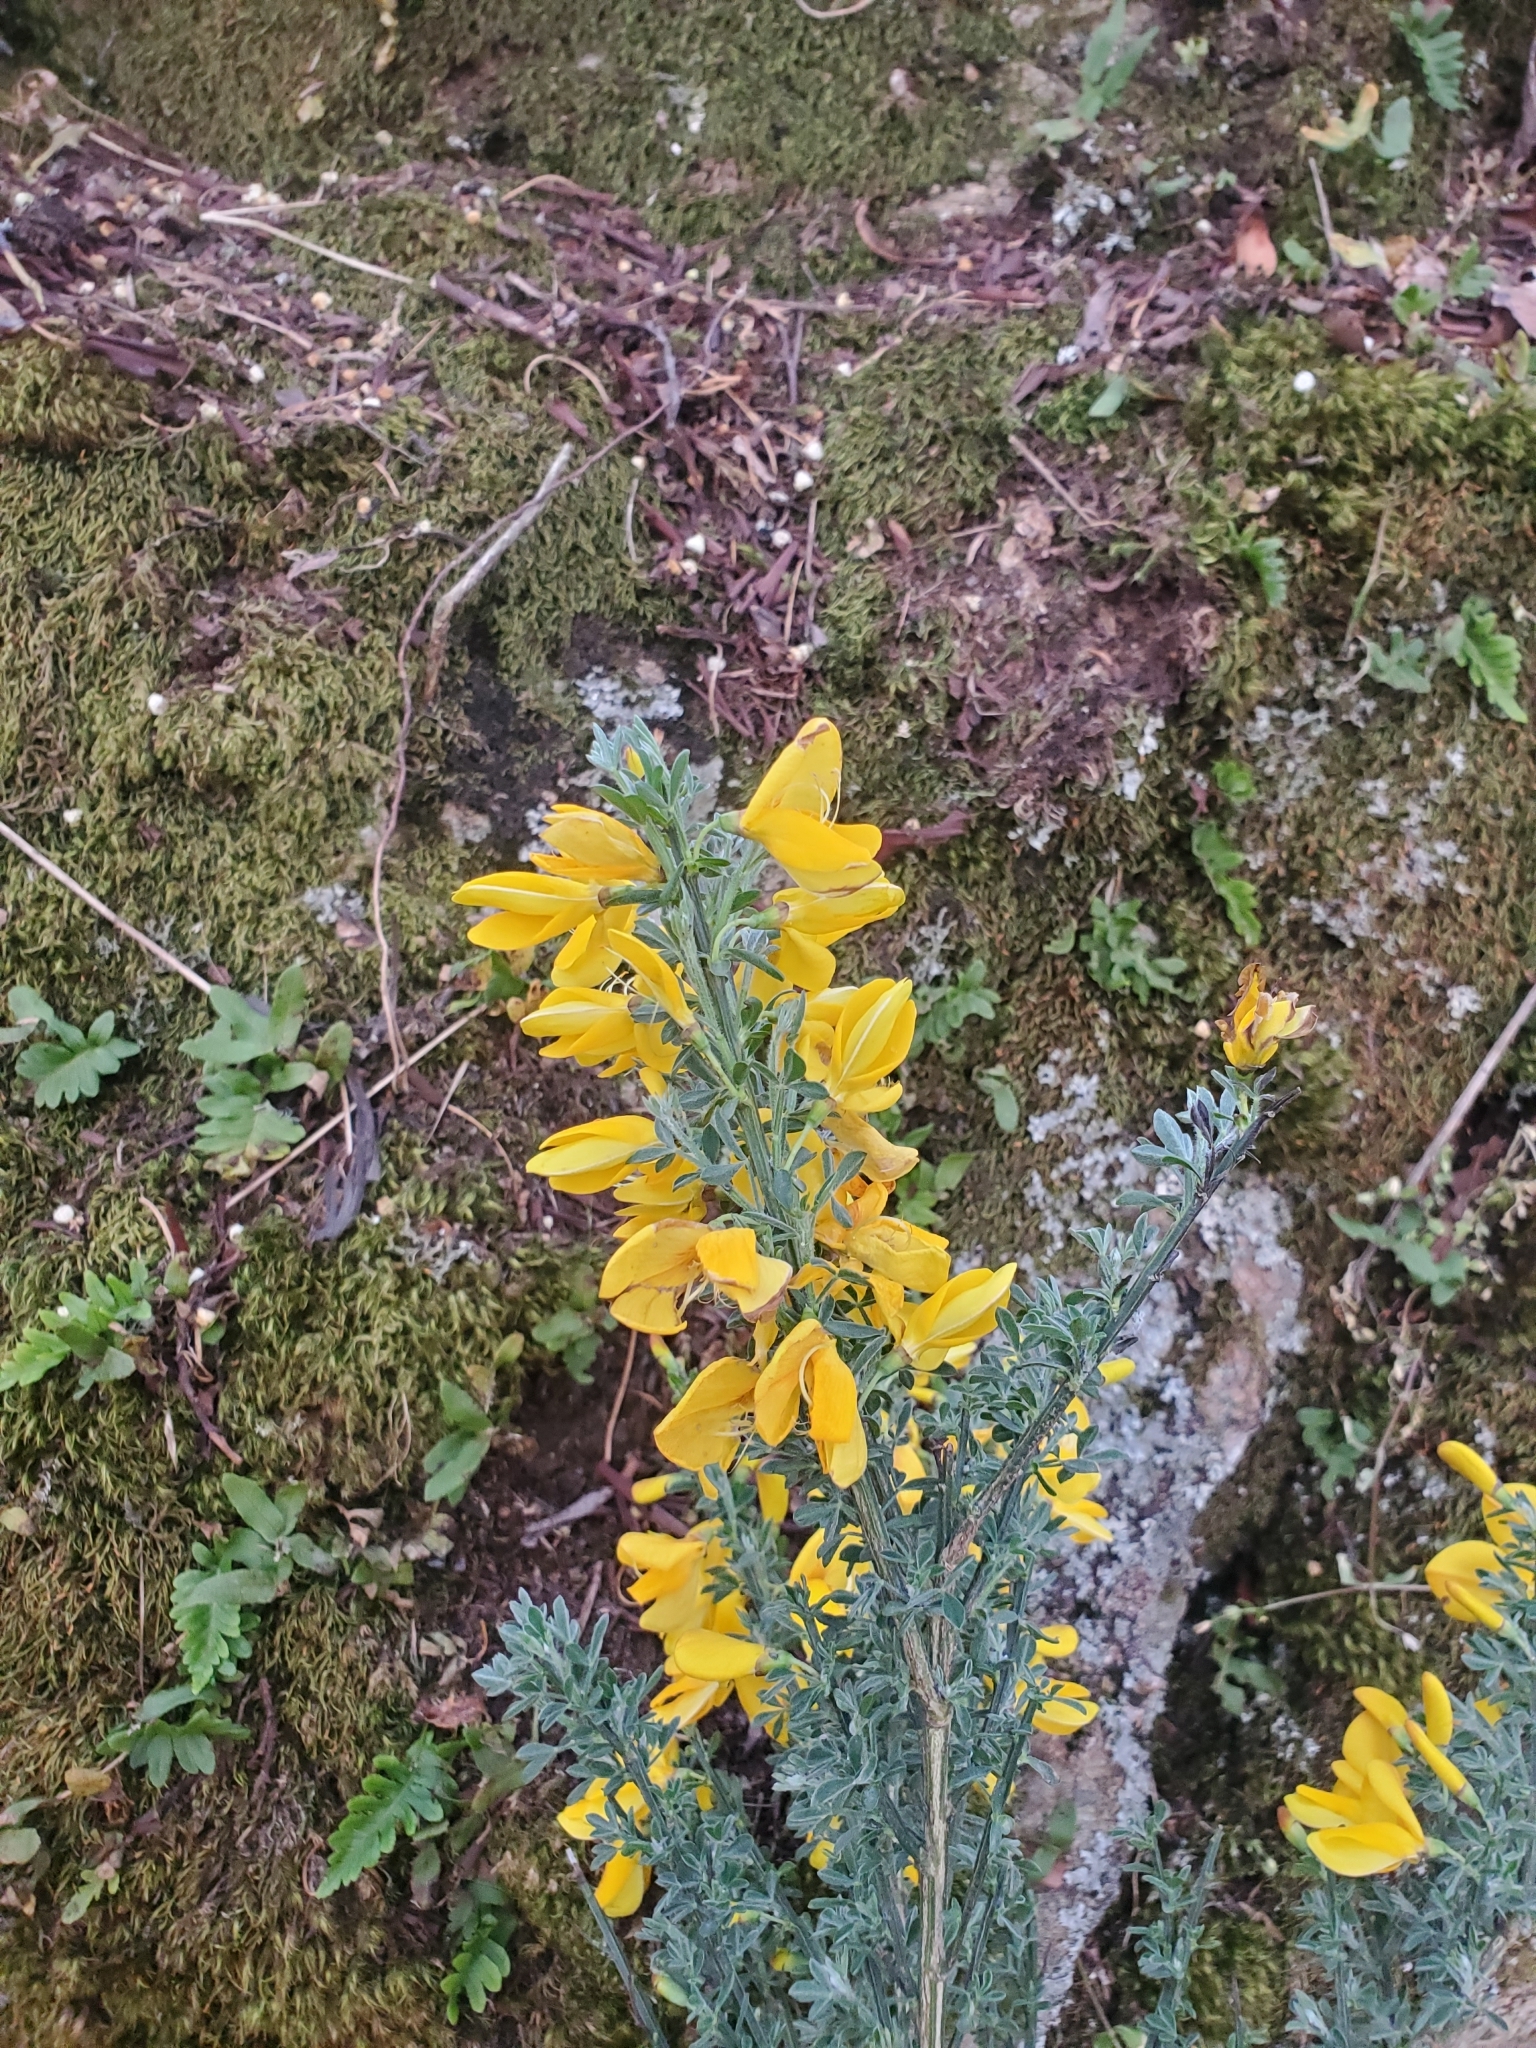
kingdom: Plantae
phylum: Tracheophyta
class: Magnoliopsida
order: Fabales
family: Fabaceae
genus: Cytisus
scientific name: Cytisus scoparius
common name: Scotch broom
